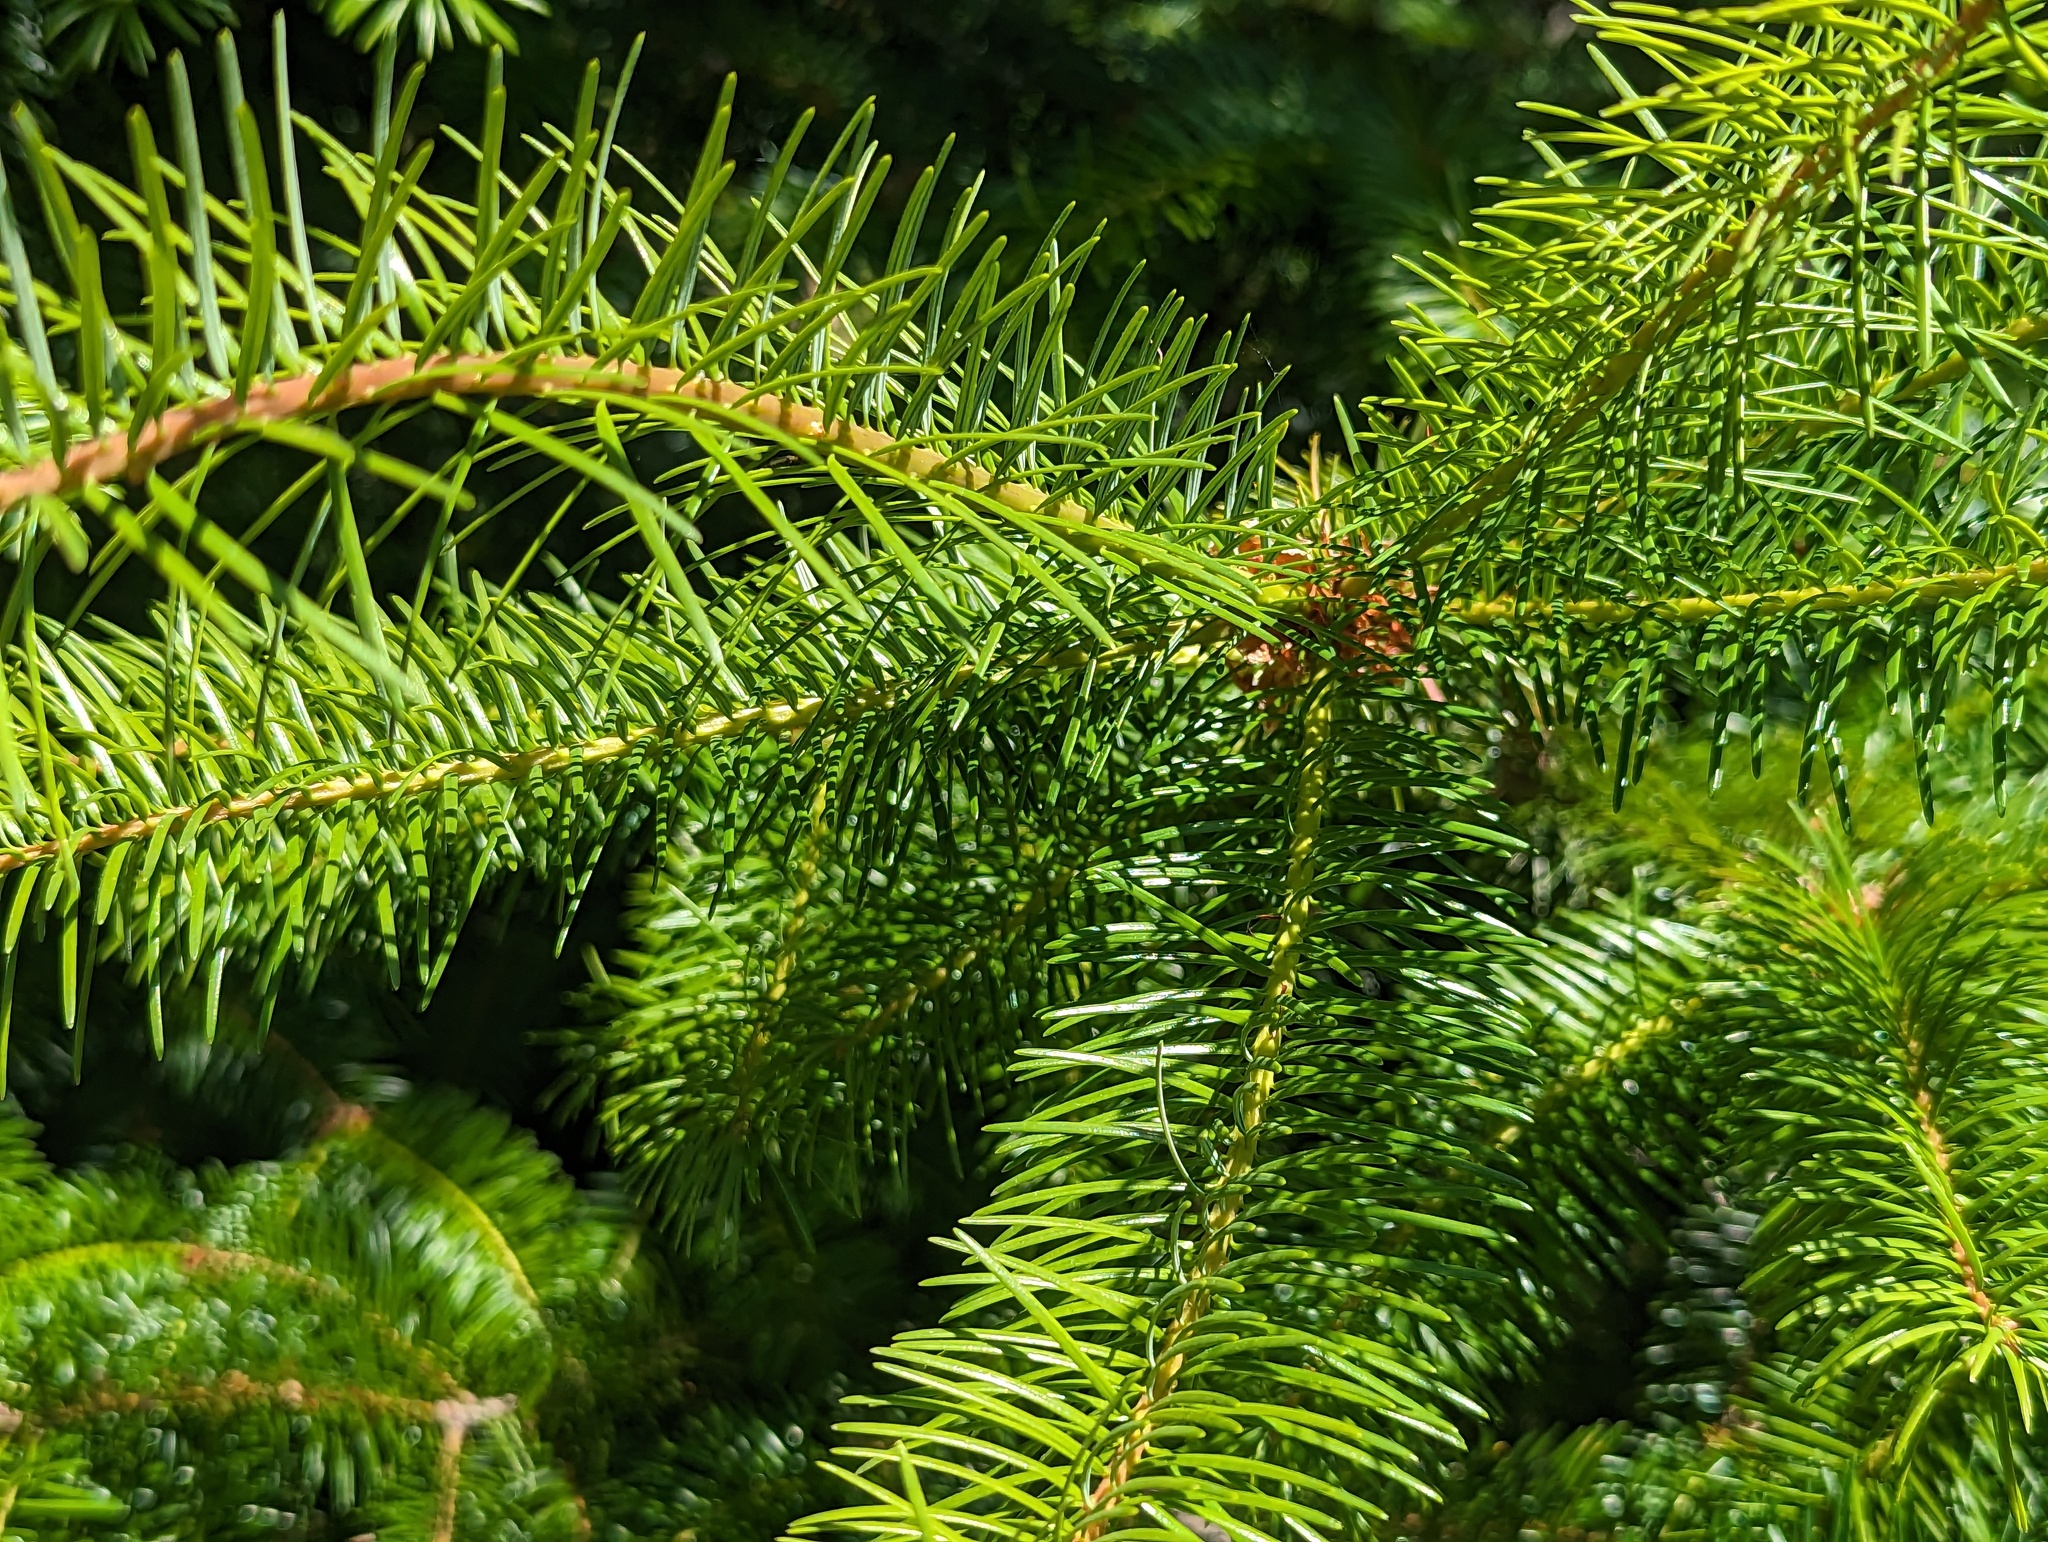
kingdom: Plantae
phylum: Tracheophyta
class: Pinopsida
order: Pinales
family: Pinaceae
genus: Pseudotsuga
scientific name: Pseudotsuga menziesii
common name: Douglas fir
